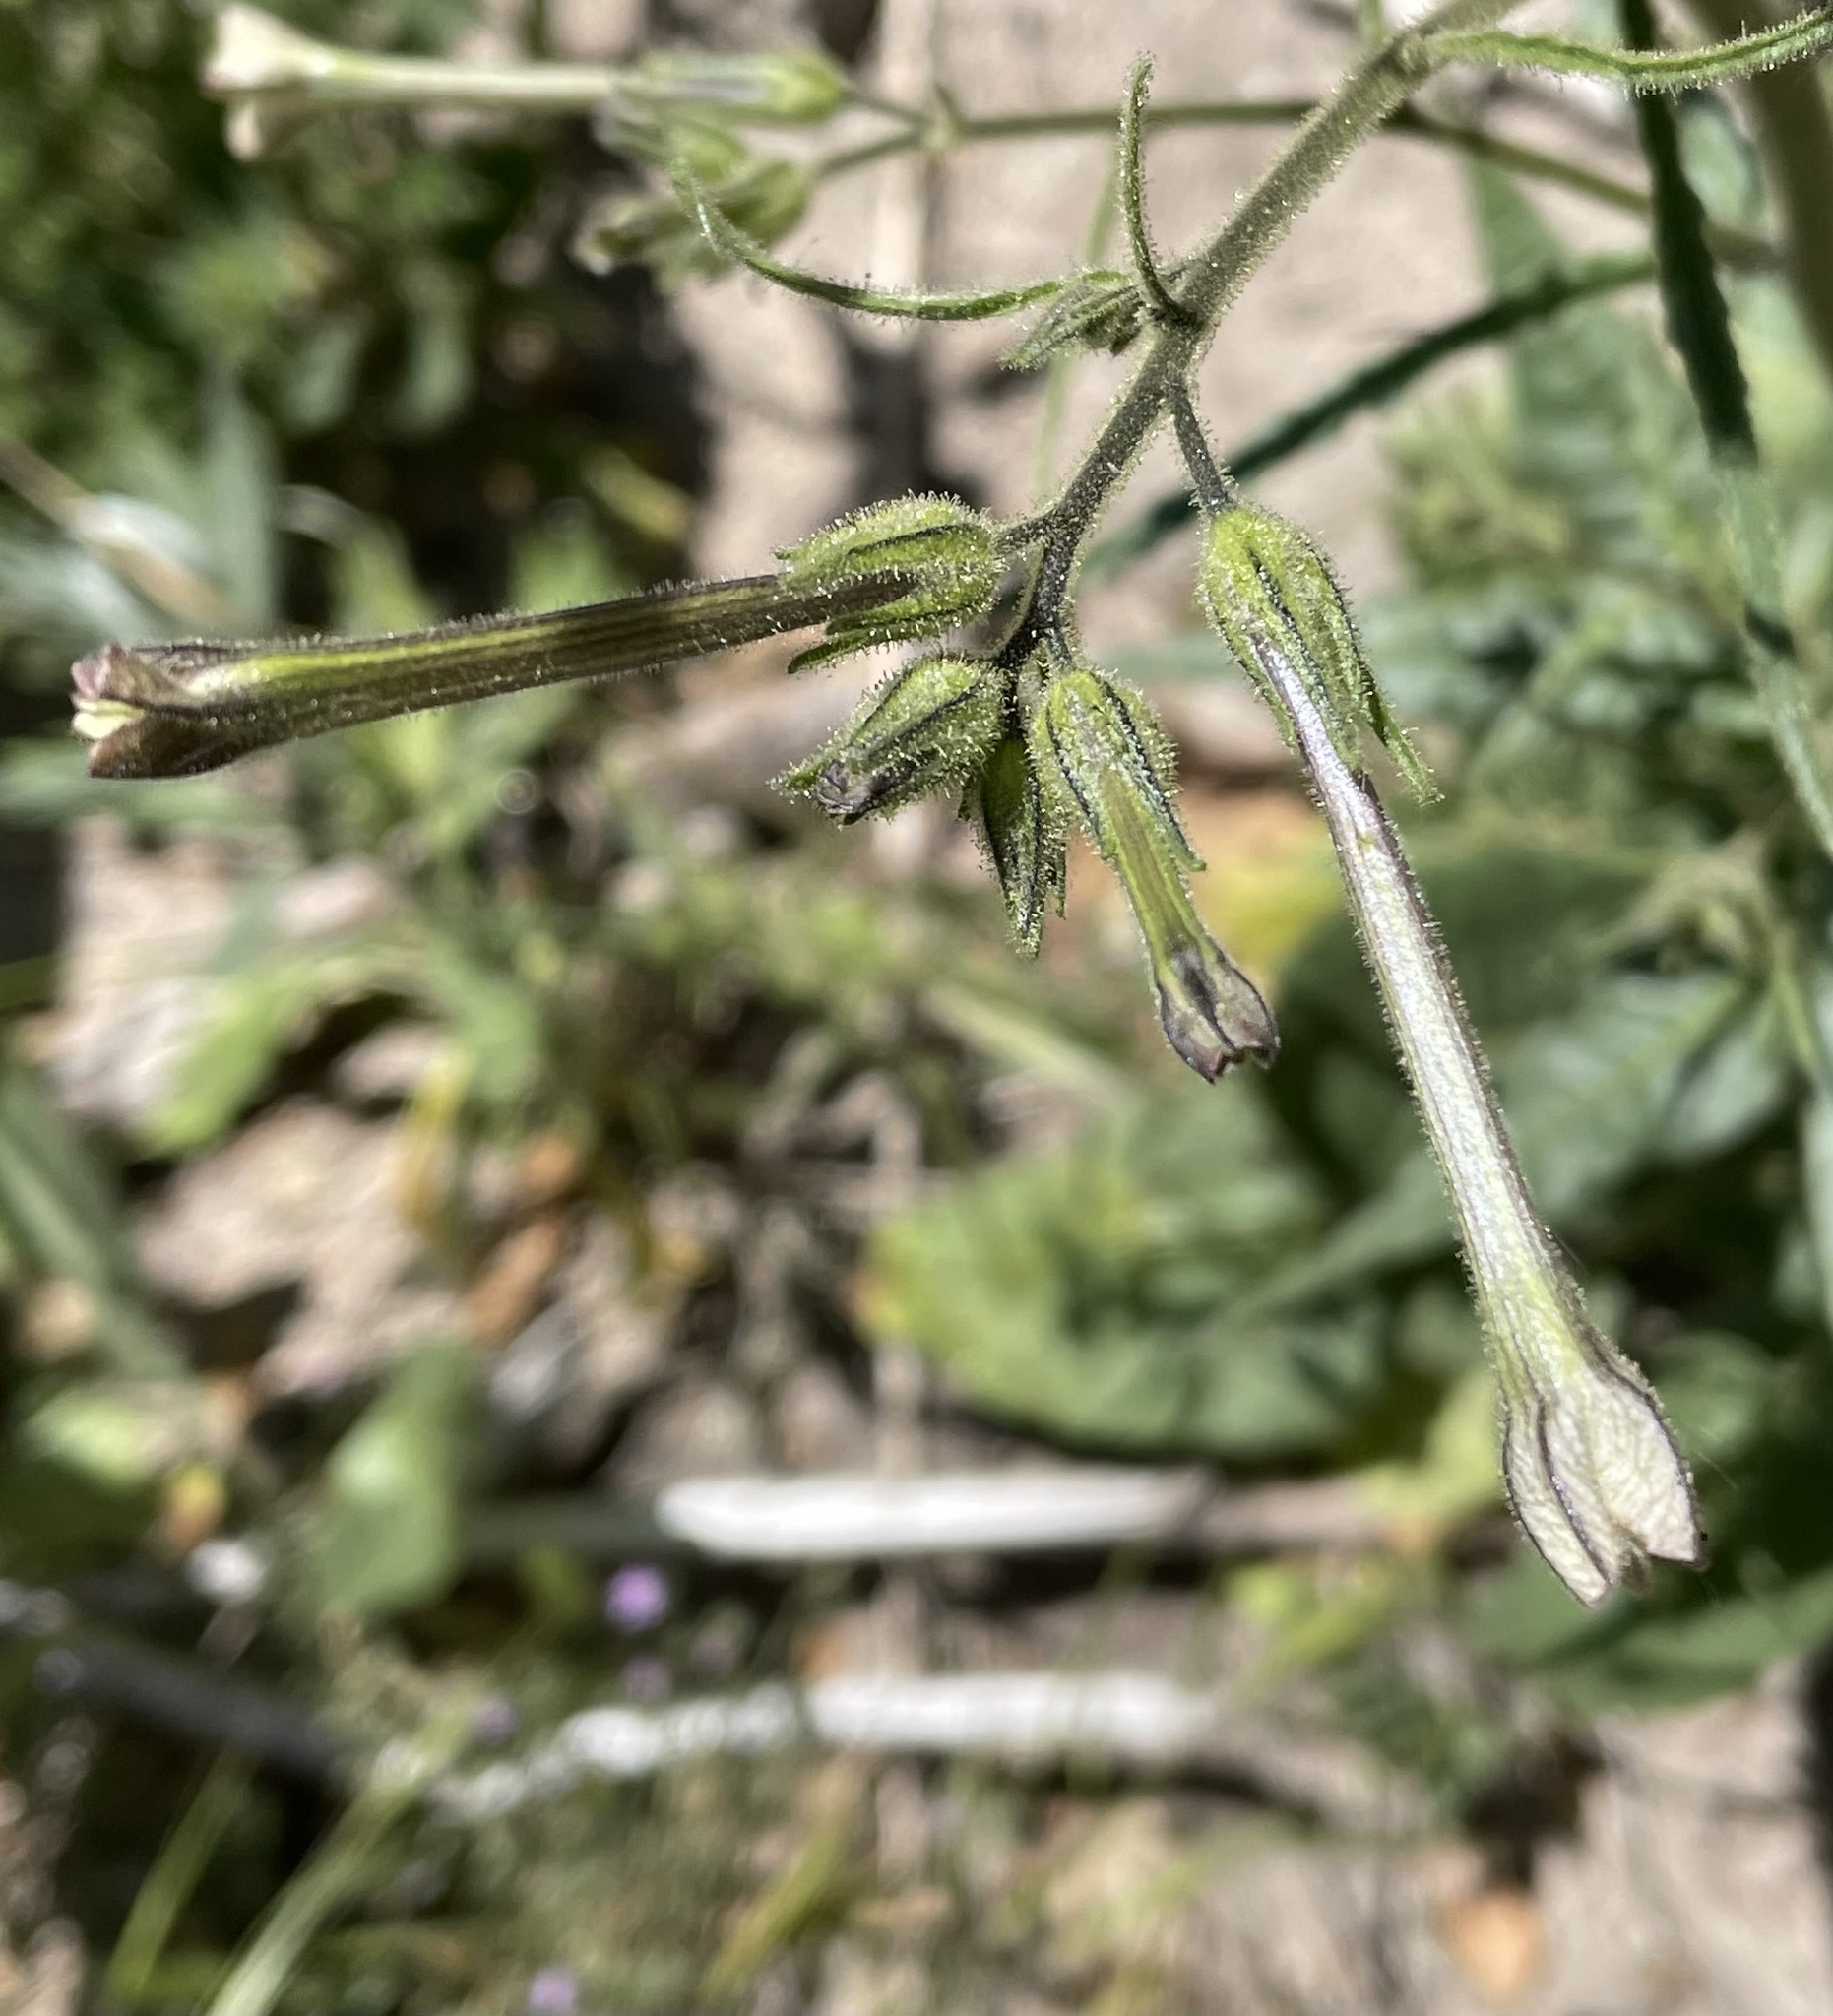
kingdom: Plantae
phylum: Tracheophyta
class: Magnoliopsida
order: Solanales
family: Solanaceae
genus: Nicotiana
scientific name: Nicotiana acuminata
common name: Manyflower tobacco
